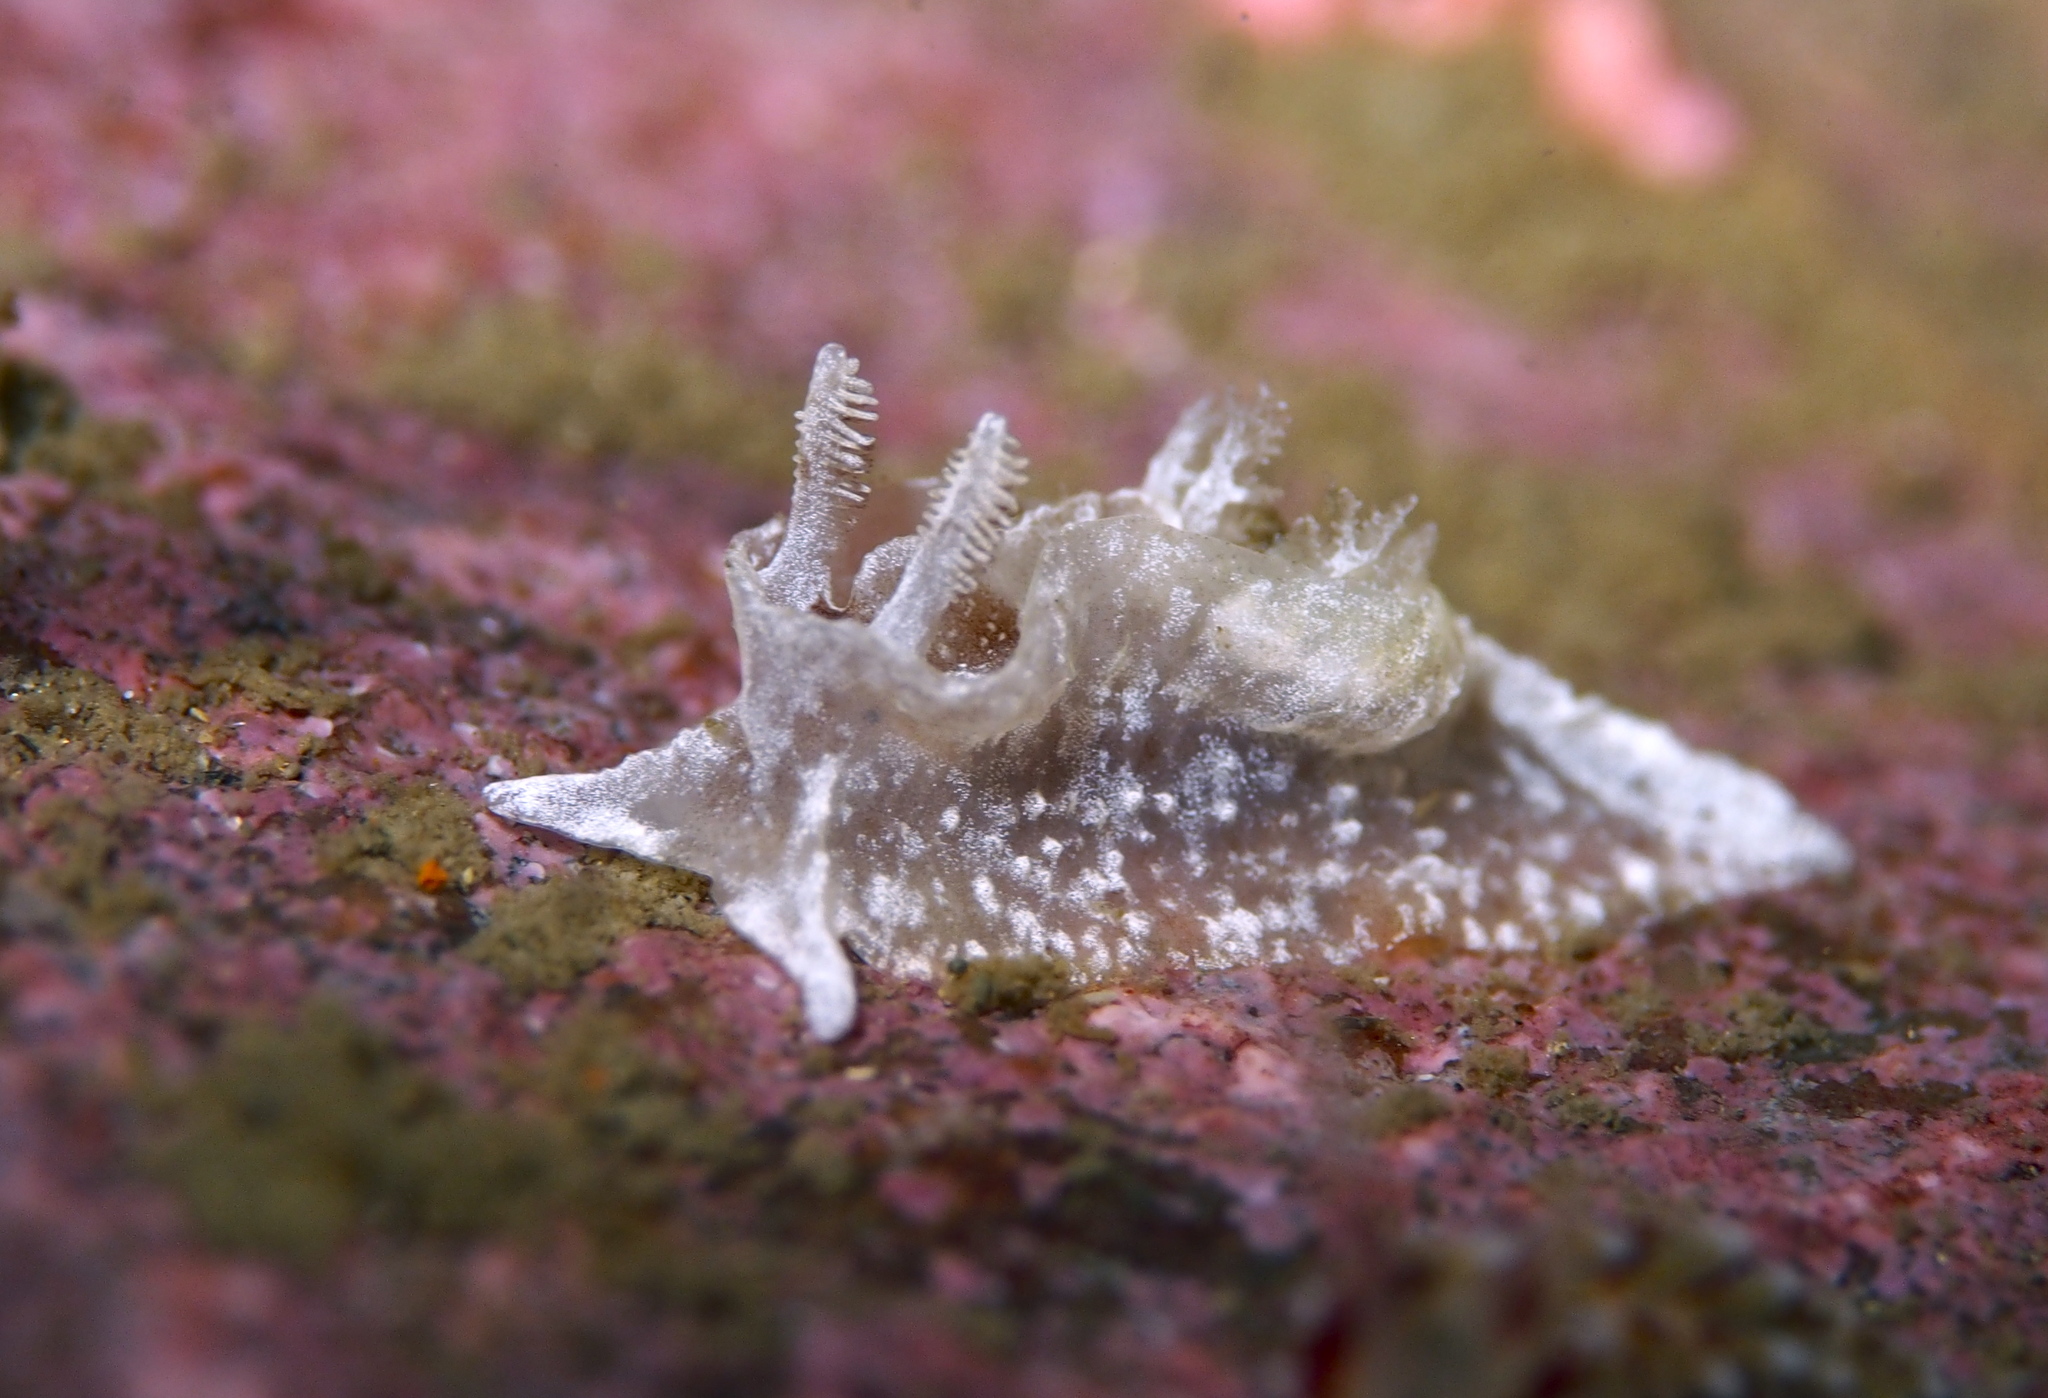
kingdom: Animalia
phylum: Mollusca
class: Gastropoda
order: Nudibranchia
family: Goniodorididae
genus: Pelagella
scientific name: Pelagella castanea
